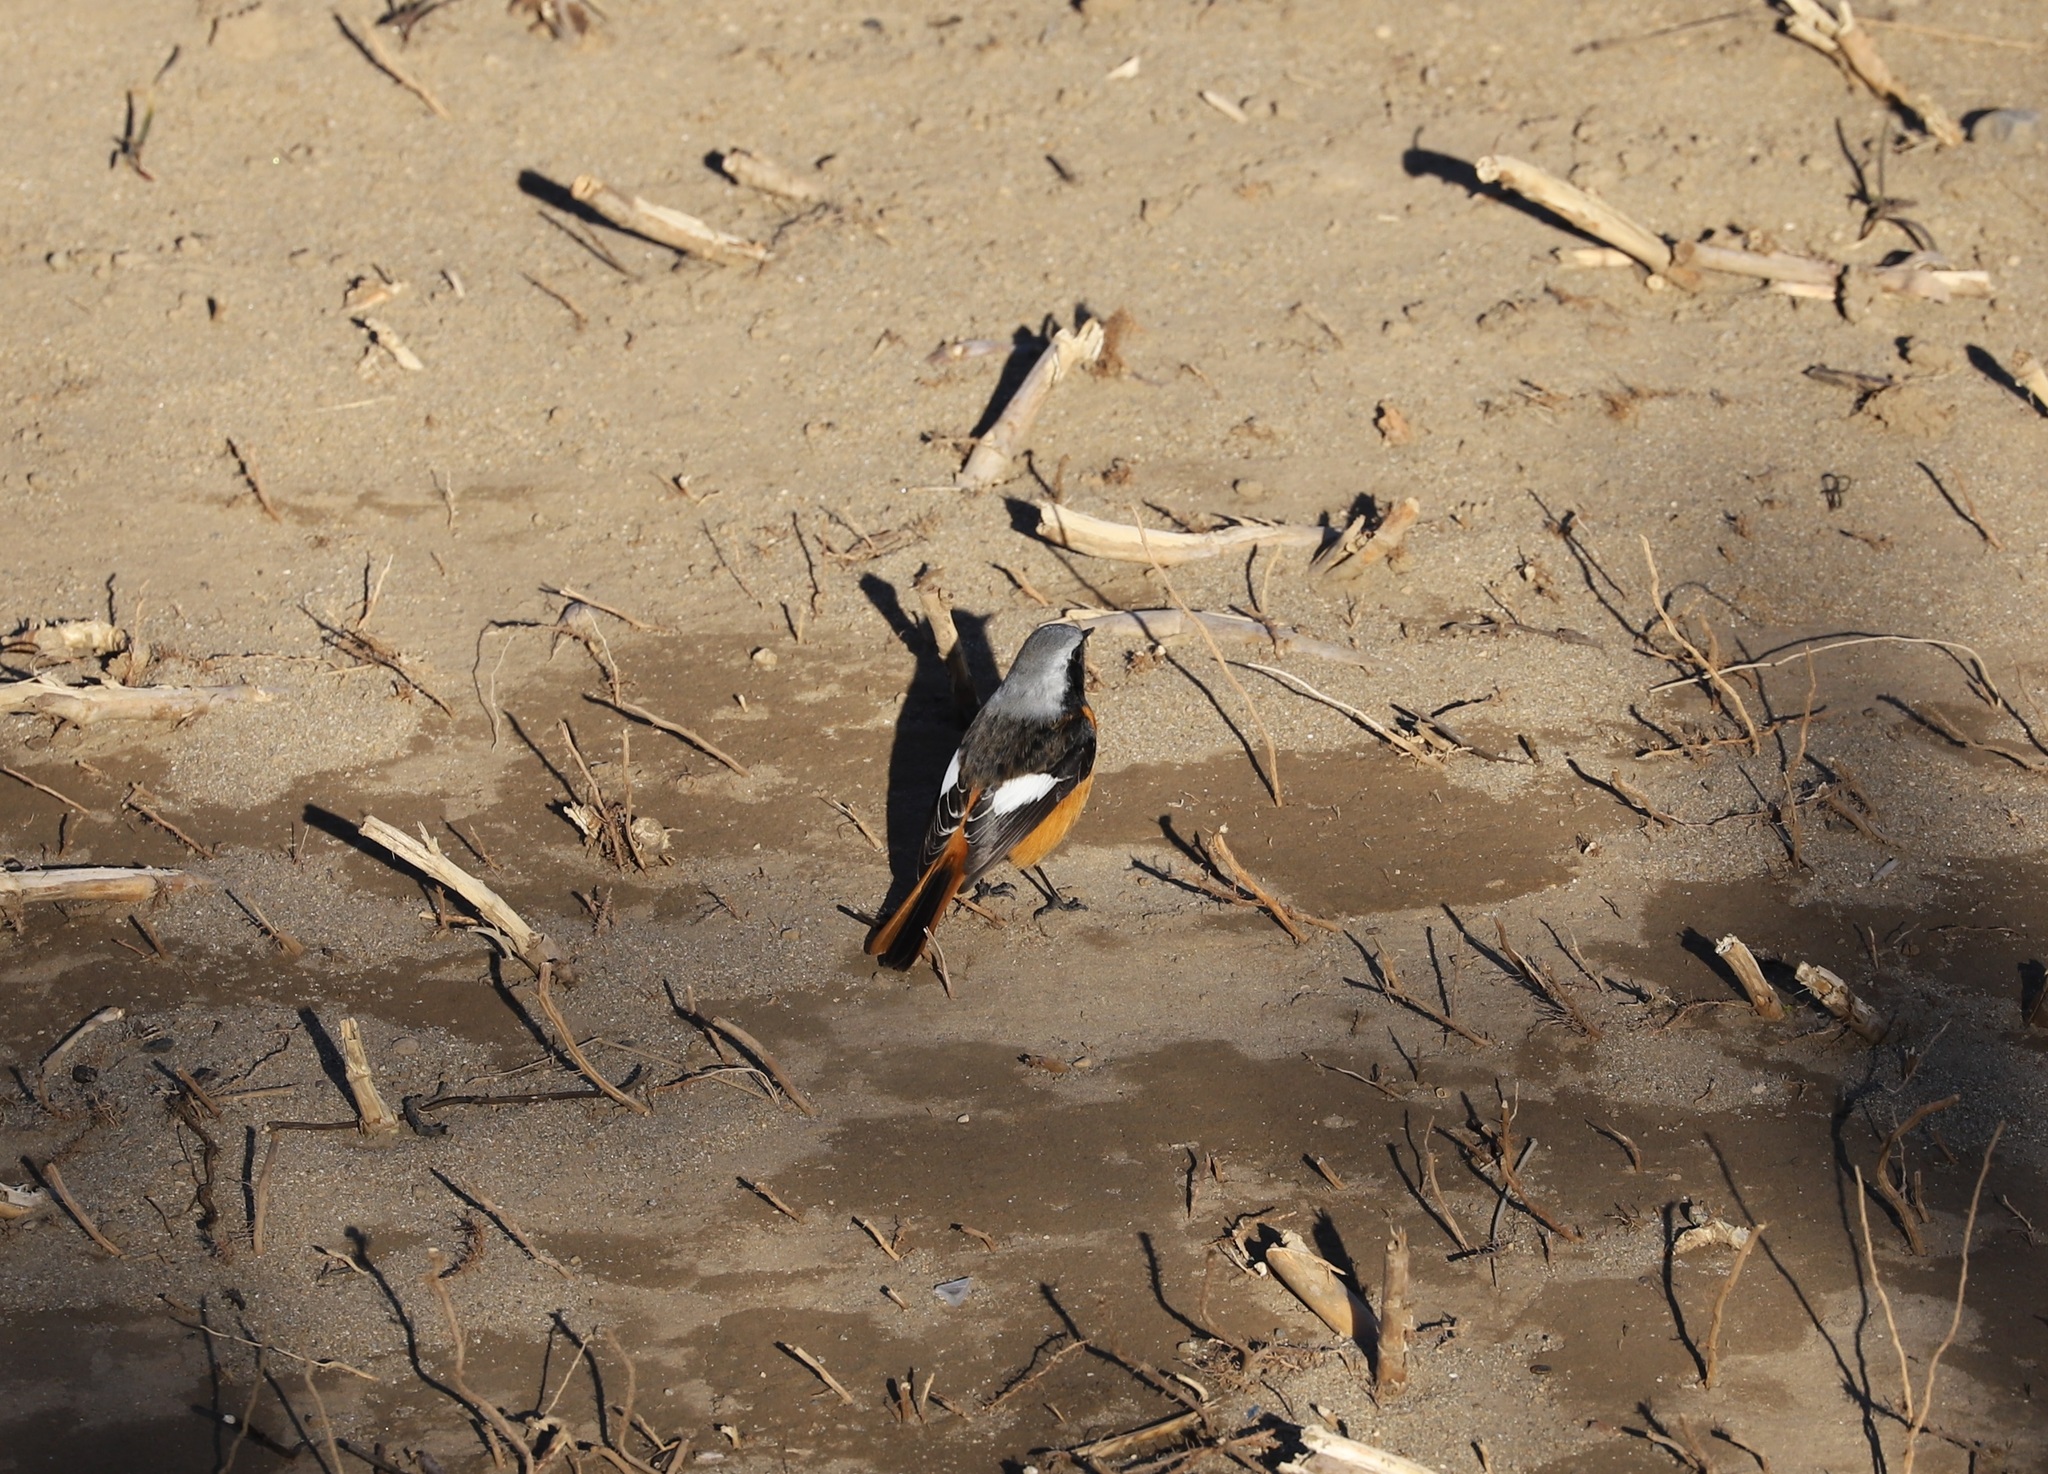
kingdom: Animalia
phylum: Chordata
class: Aves
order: Passeriformes
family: Muscicapidae
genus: Phoenicurus
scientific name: Phoenicurus auroreus
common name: Daurian redstart
